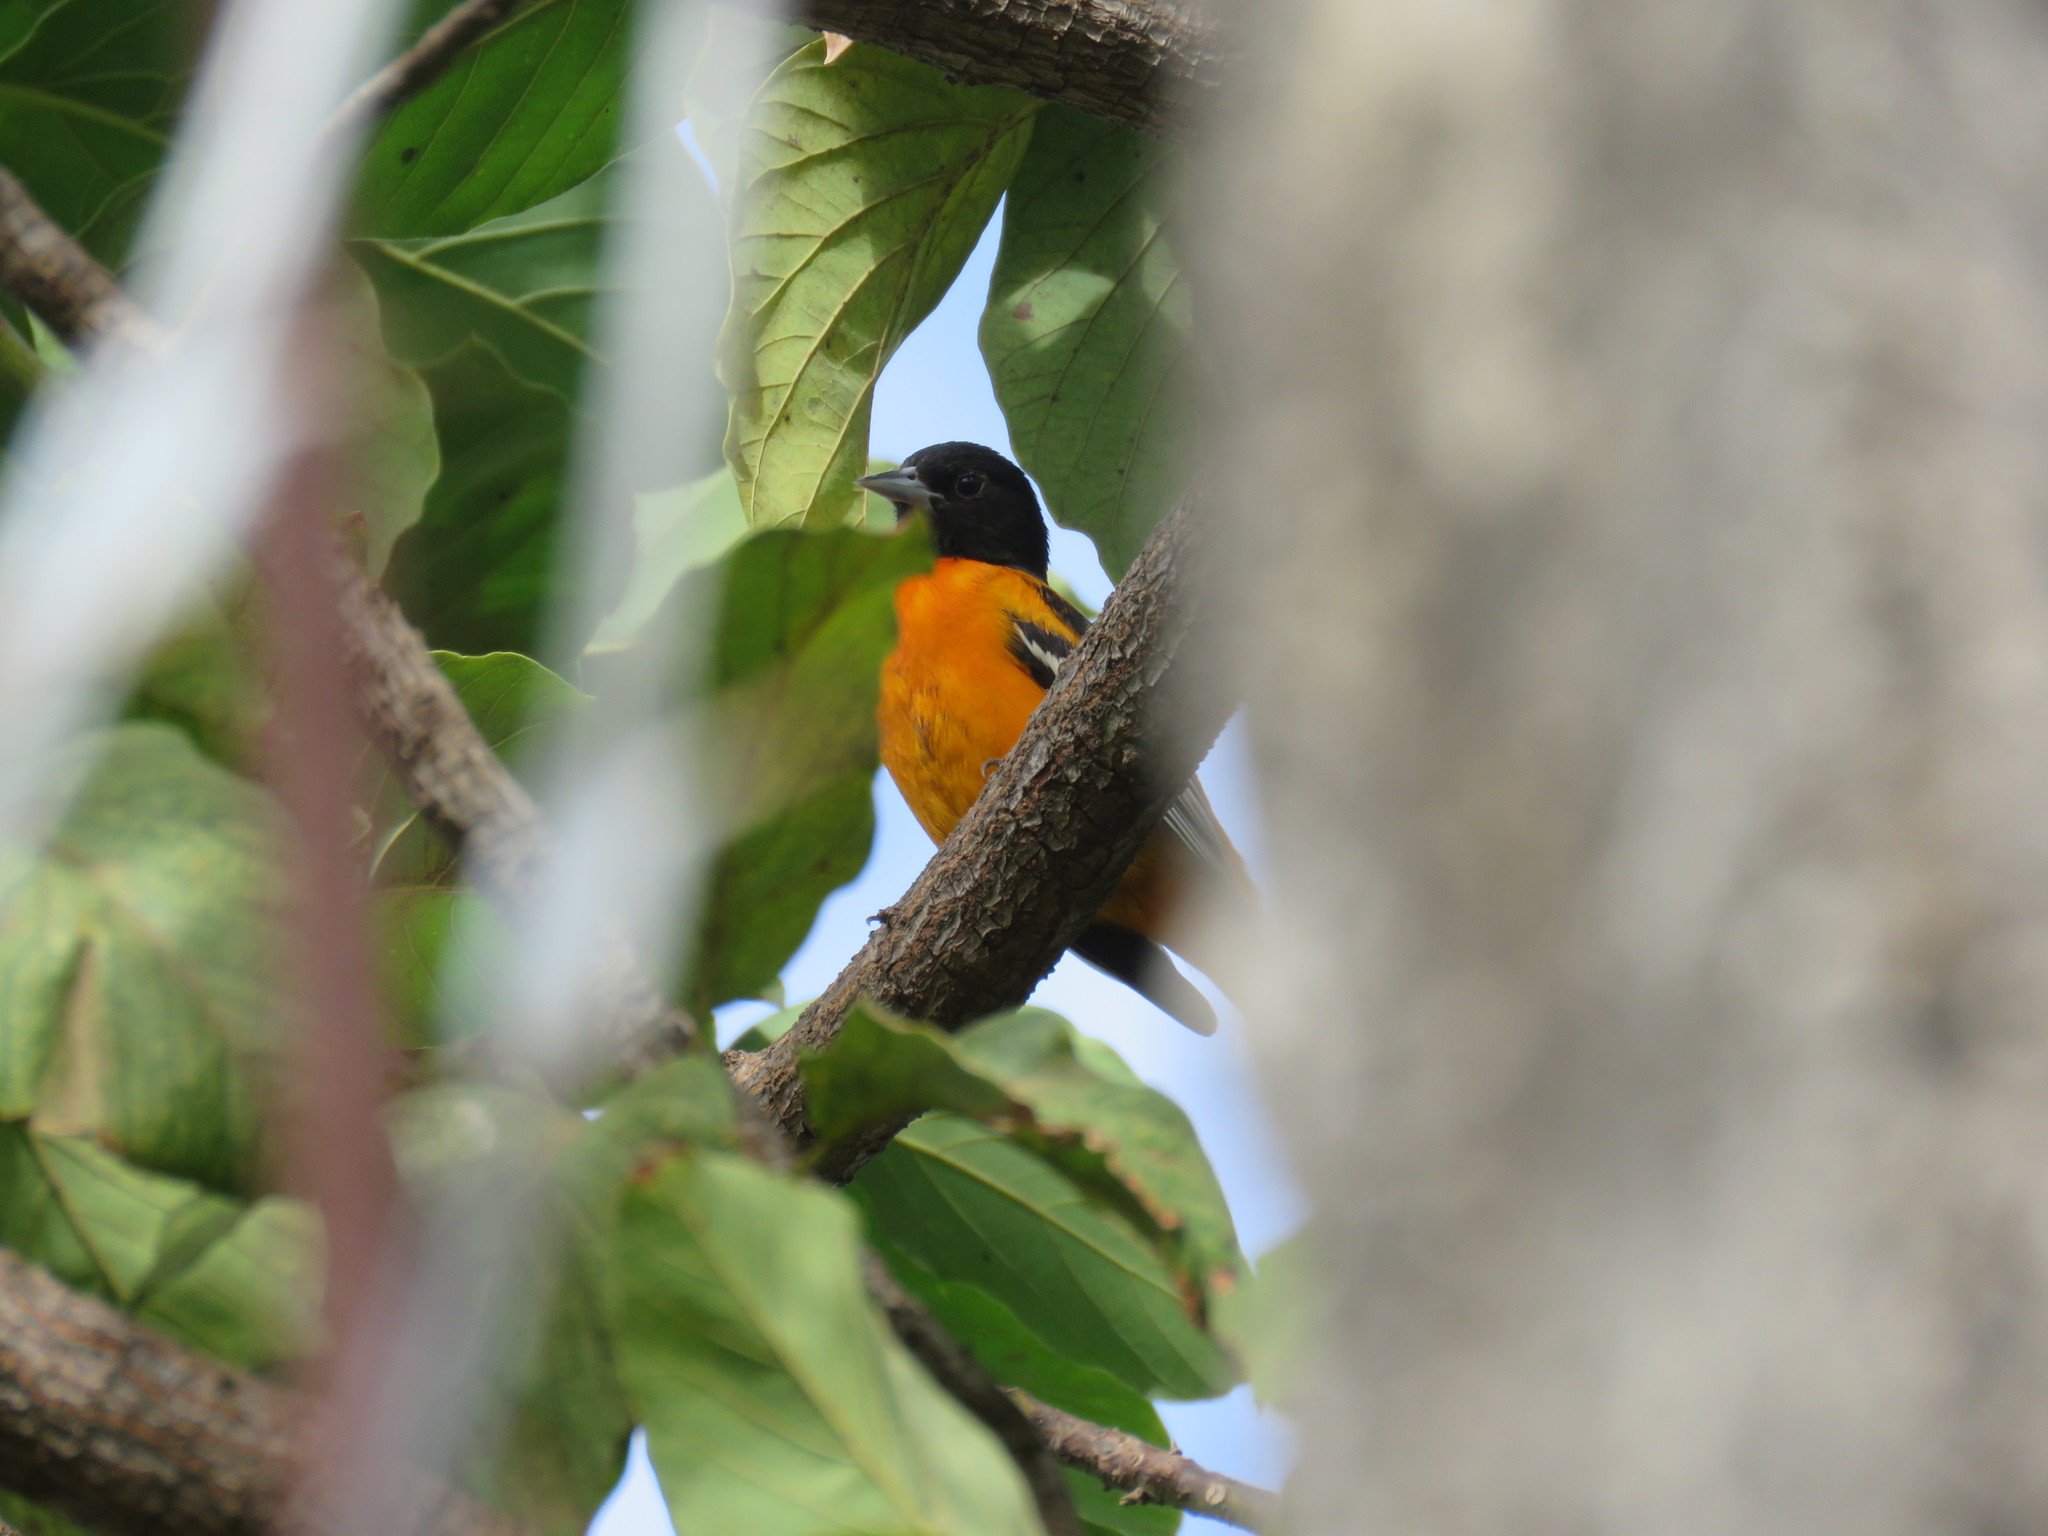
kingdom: Animalia
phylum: Chordata
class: Aves
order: Passeriformes
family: Icteridae
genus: Icterus
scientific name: Icterus galbula
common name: Baltimore oriole
